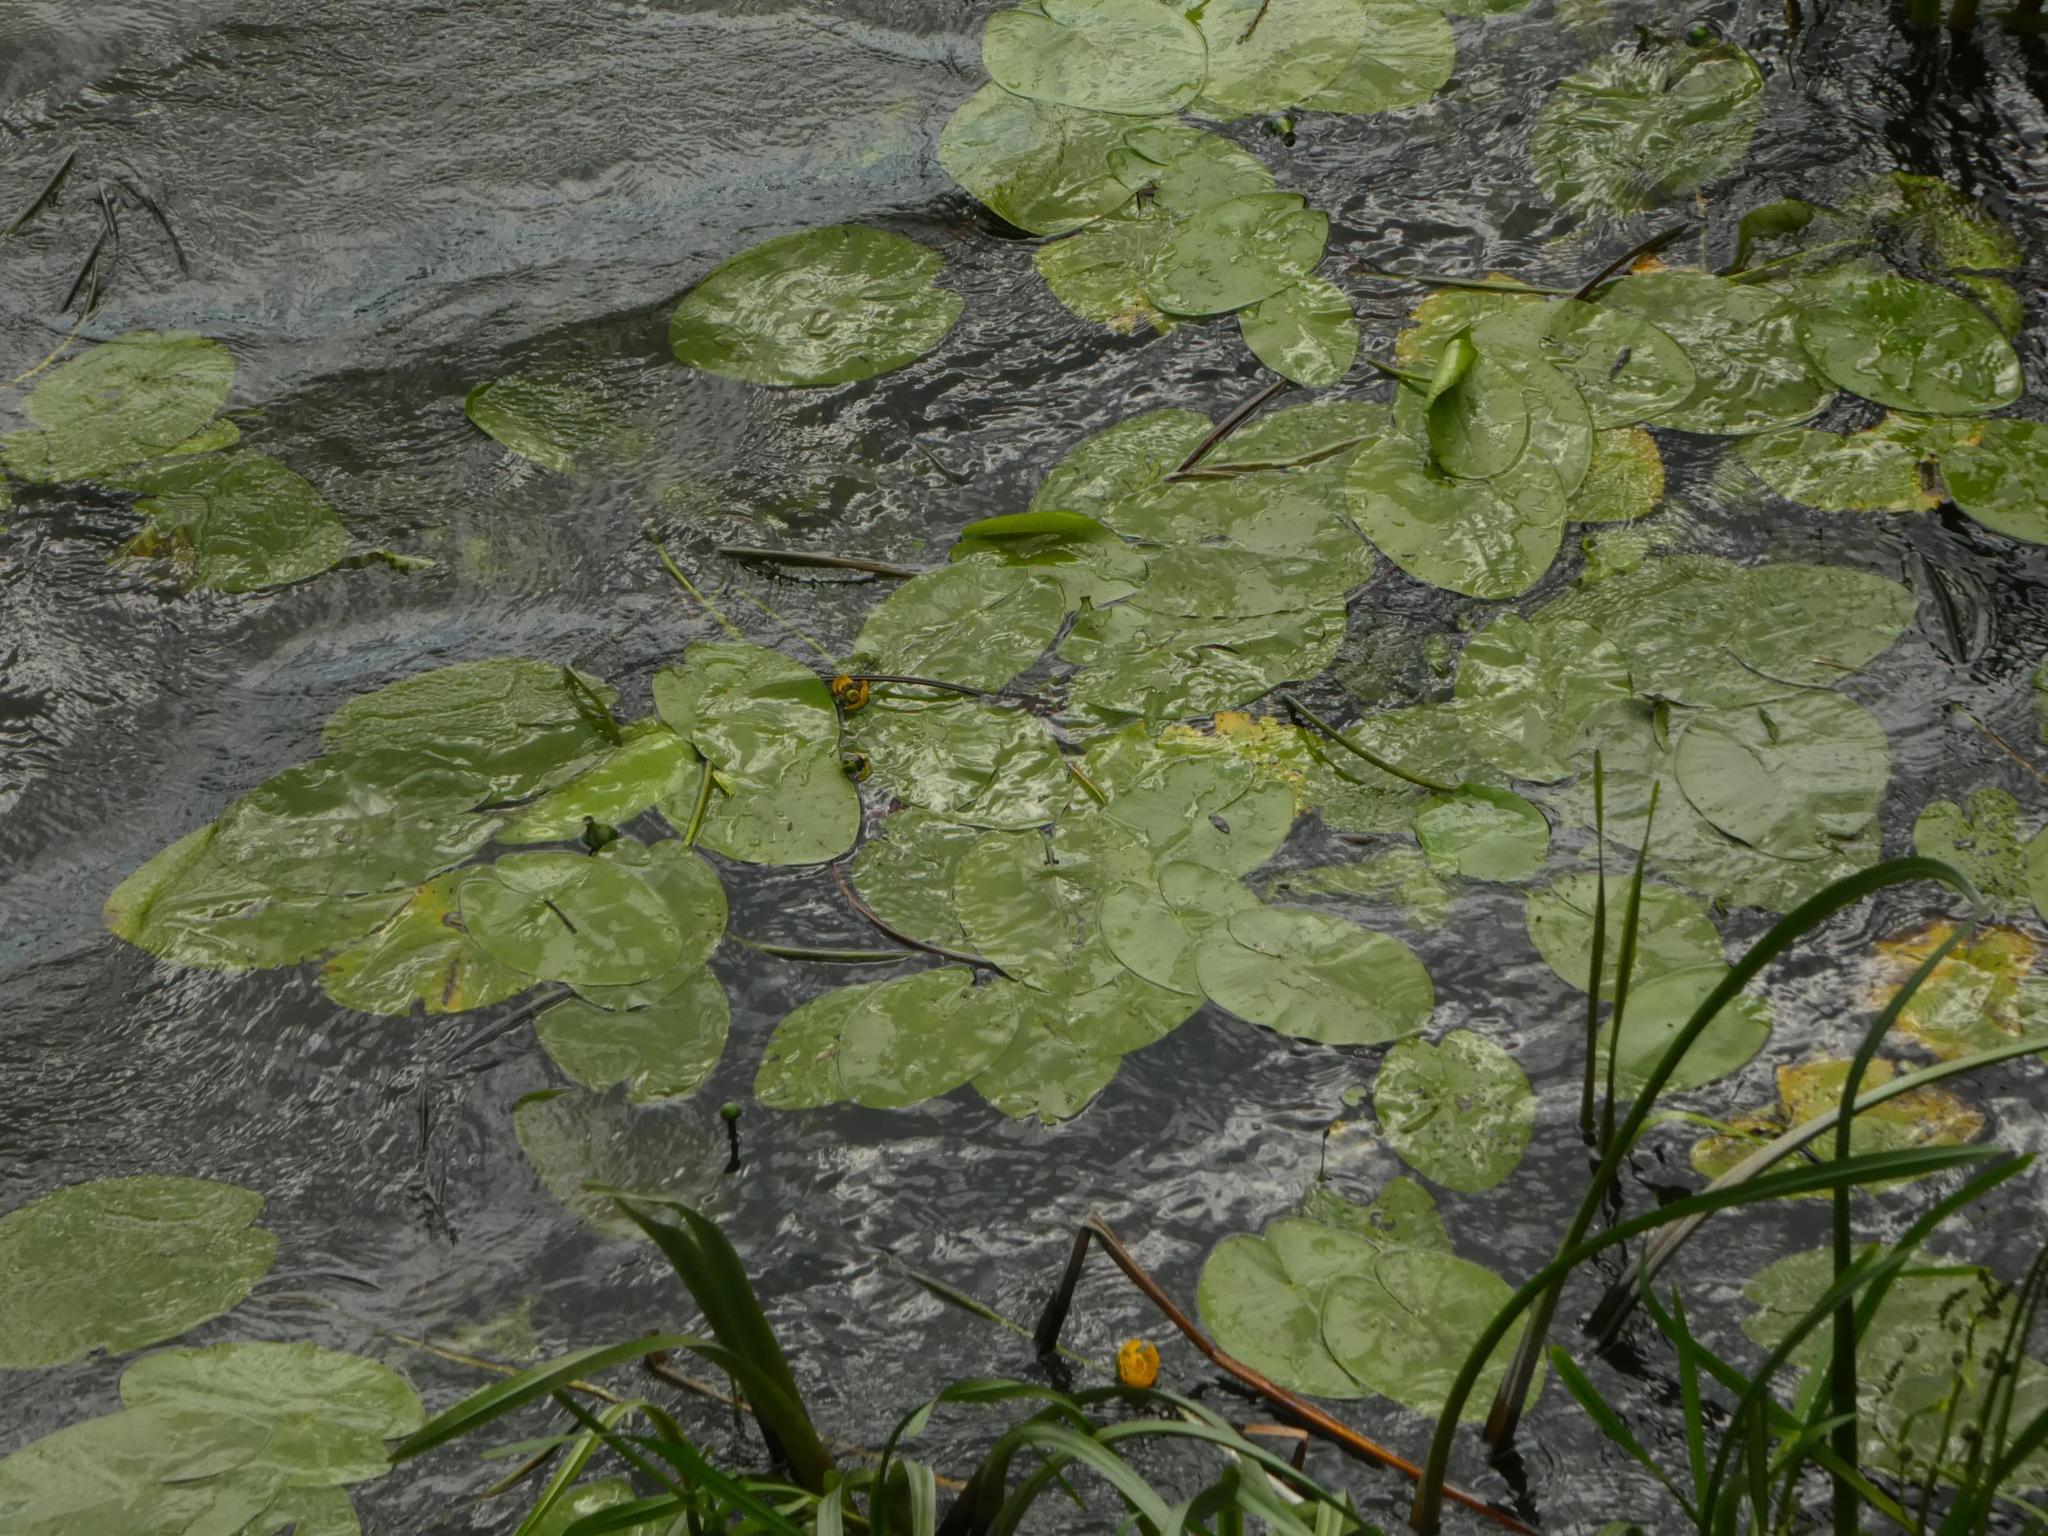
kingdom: Plantae
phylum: Tracheophyta
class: Magnoliopsida
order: Nymphaeales
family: Nymphaeaceae
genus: Nuphar
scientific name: Nuphar lutea
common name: Yellow water-lily
